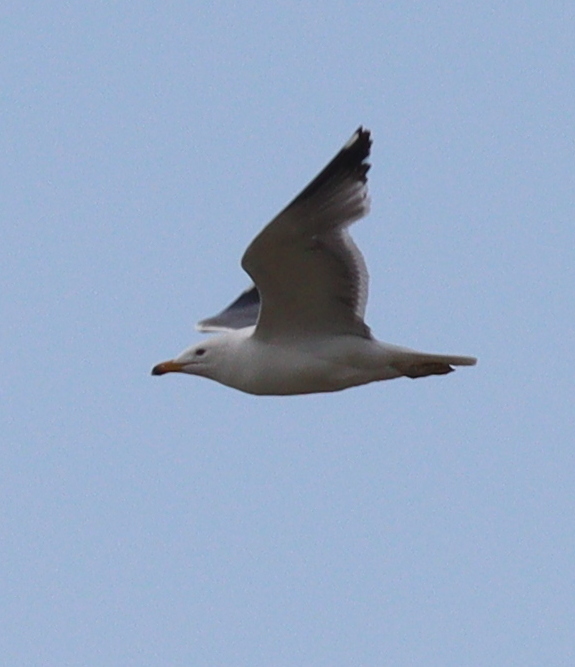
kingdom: Animalia
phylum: Chordata
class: Aves
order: Charadriiformes
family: Laridae
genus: Larus
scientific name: Larus armenicus
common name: Armenian gull
